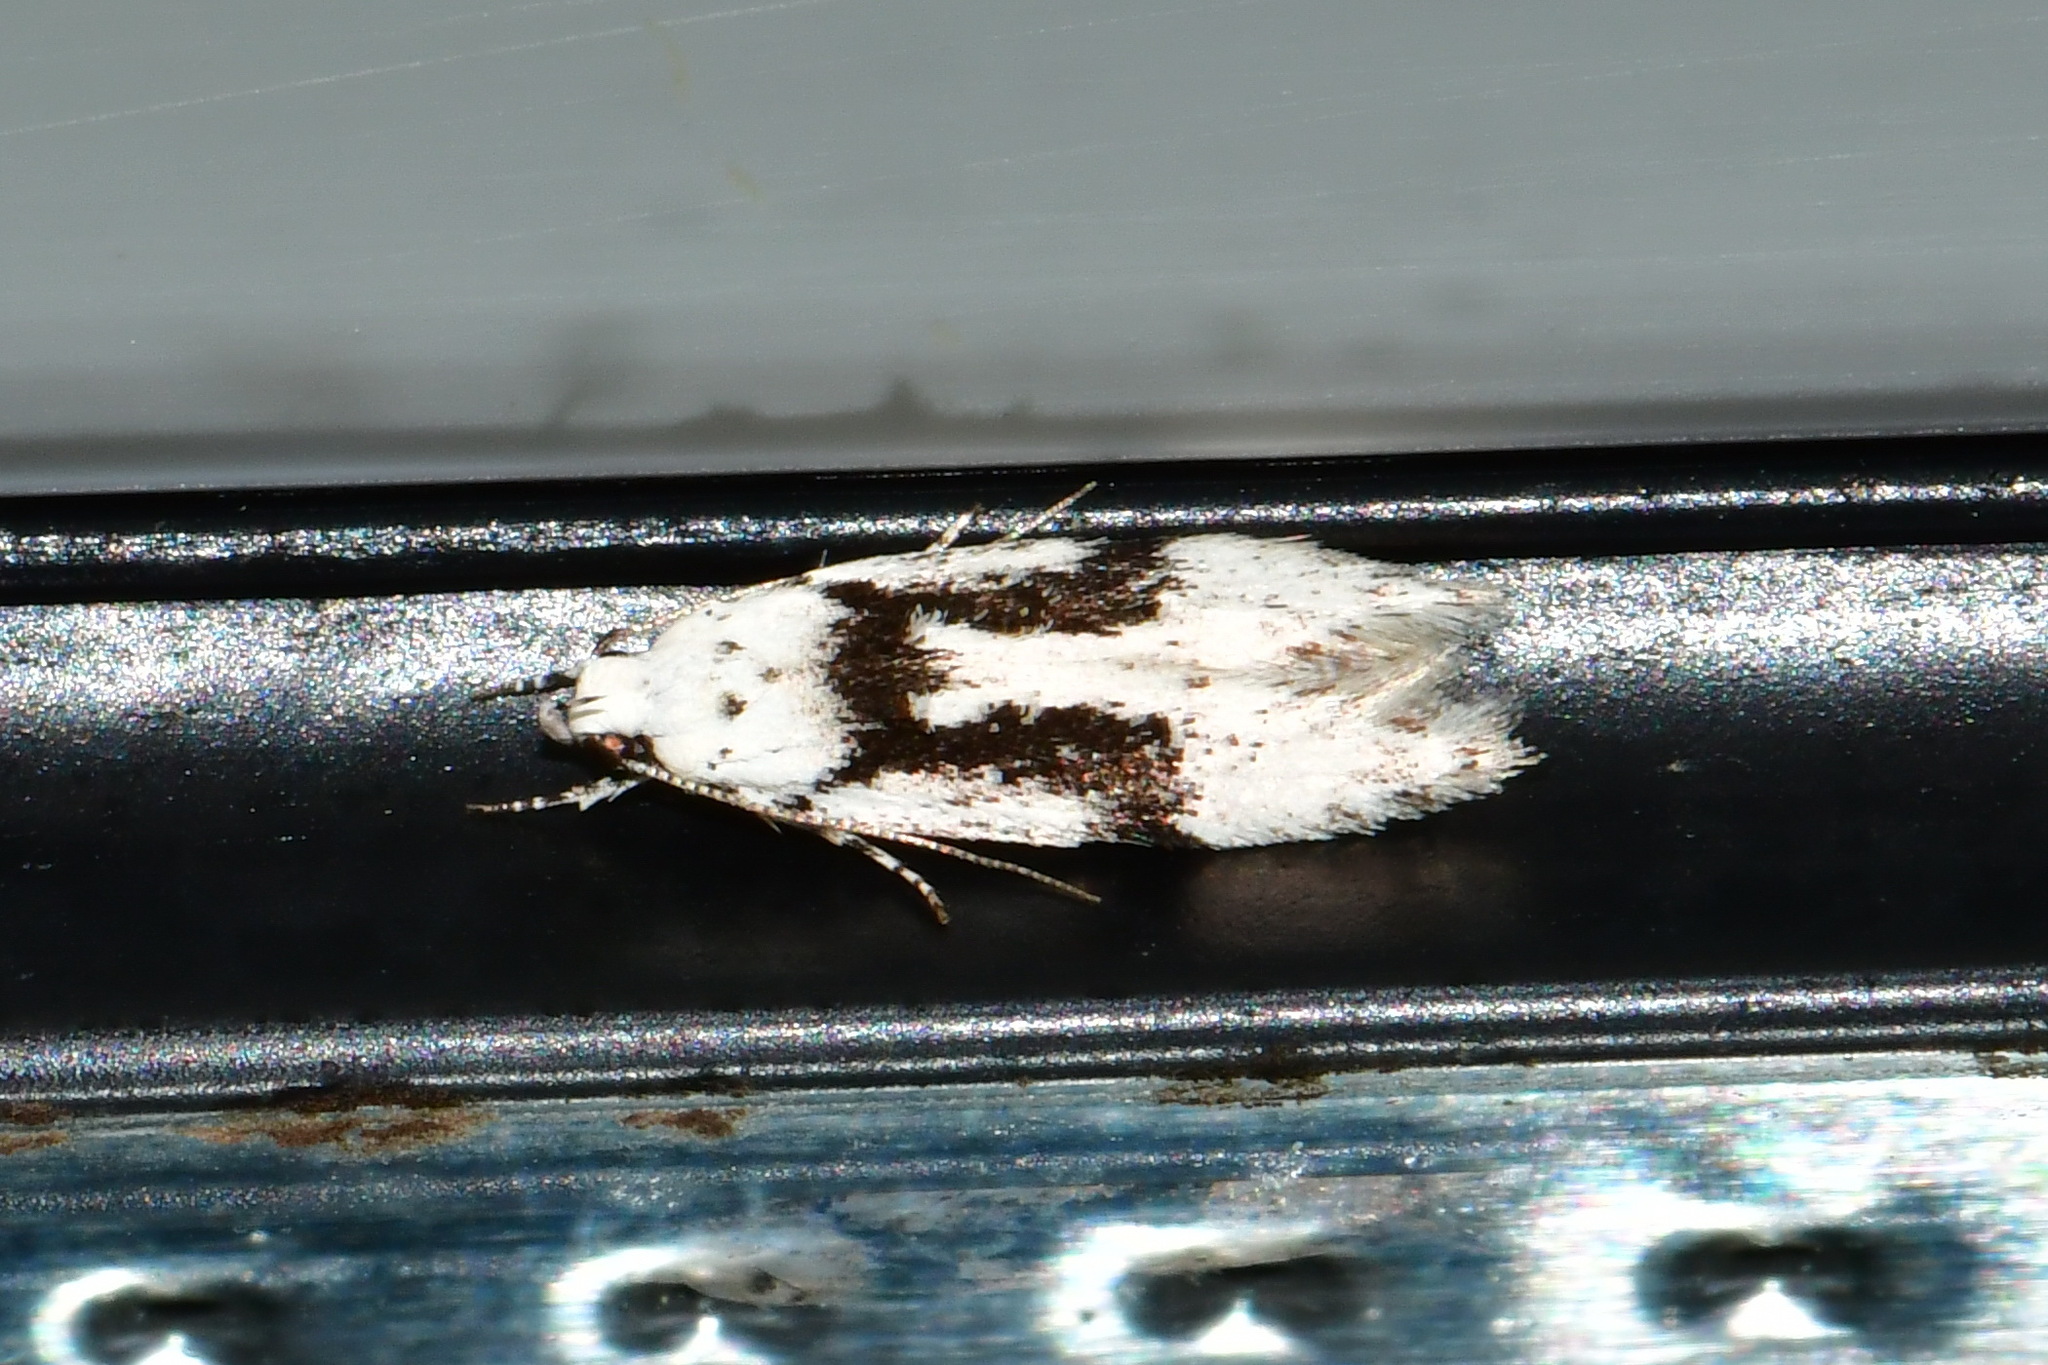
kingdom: Animalia
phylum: Arthropoda
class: Insecta
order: Lepidoptera
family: Gelechiidae
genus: Carpatolechia
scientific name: Carpatolechia alburnella
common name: Suffused groundling
